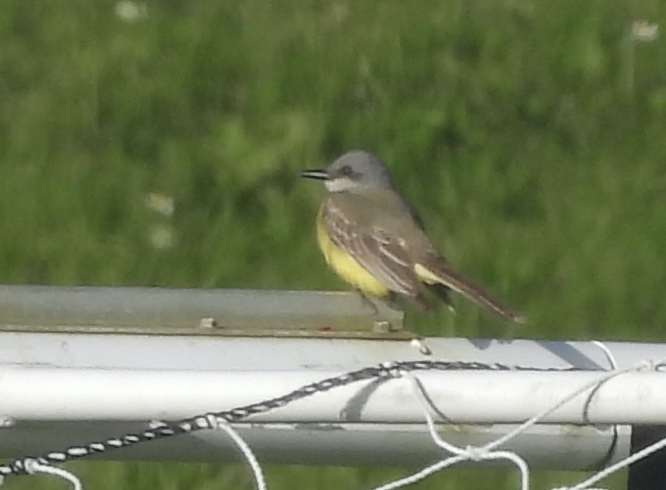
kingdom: Animalia
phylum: Chordata
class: Aves
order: Passeriformes
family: Tyrannidae
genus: Tyrannus
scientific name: Tyrannus melancholicus
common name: Tropical kingbird
